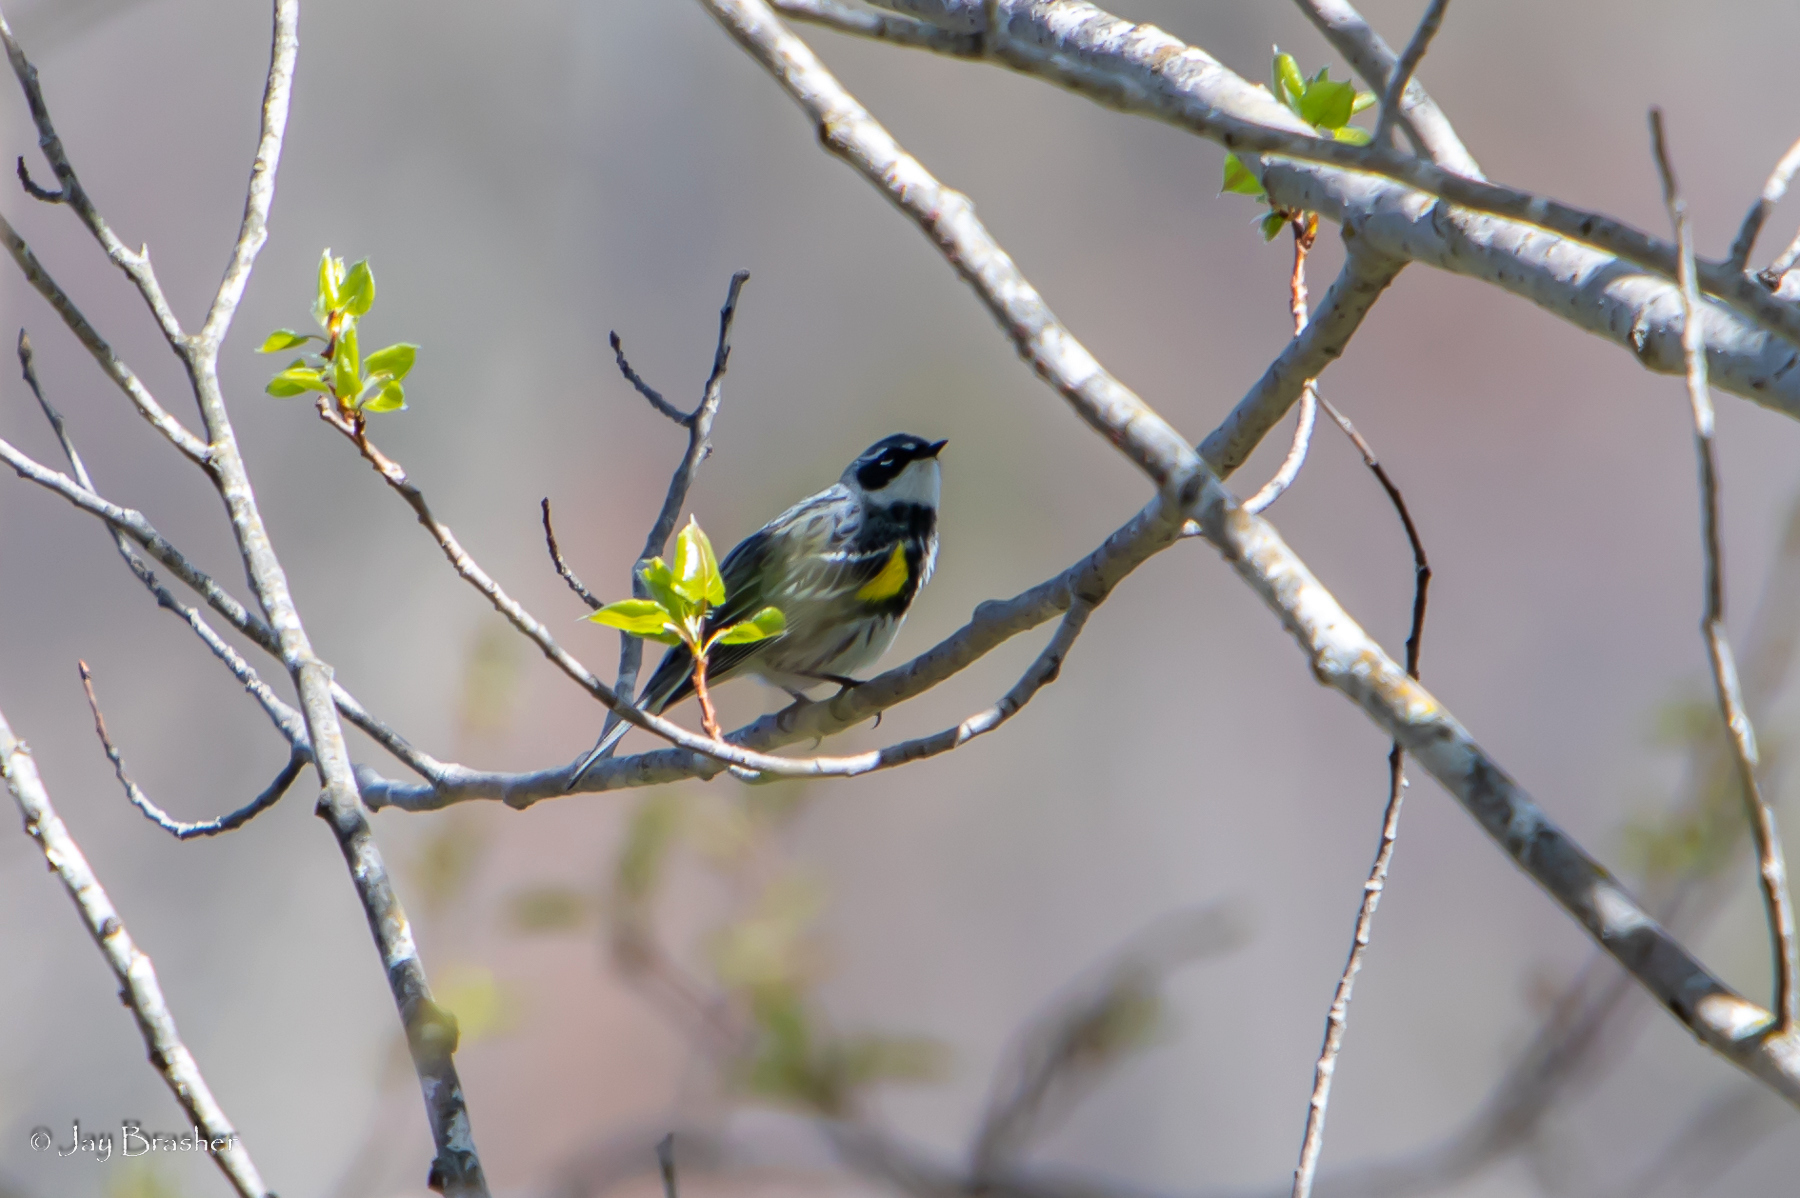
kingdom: Animalia
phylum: Chordata
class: Aves
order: Passeriformes
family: Parulidae
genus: Setophaga
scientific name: Setophaga coronata
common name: Myrtle warbler
